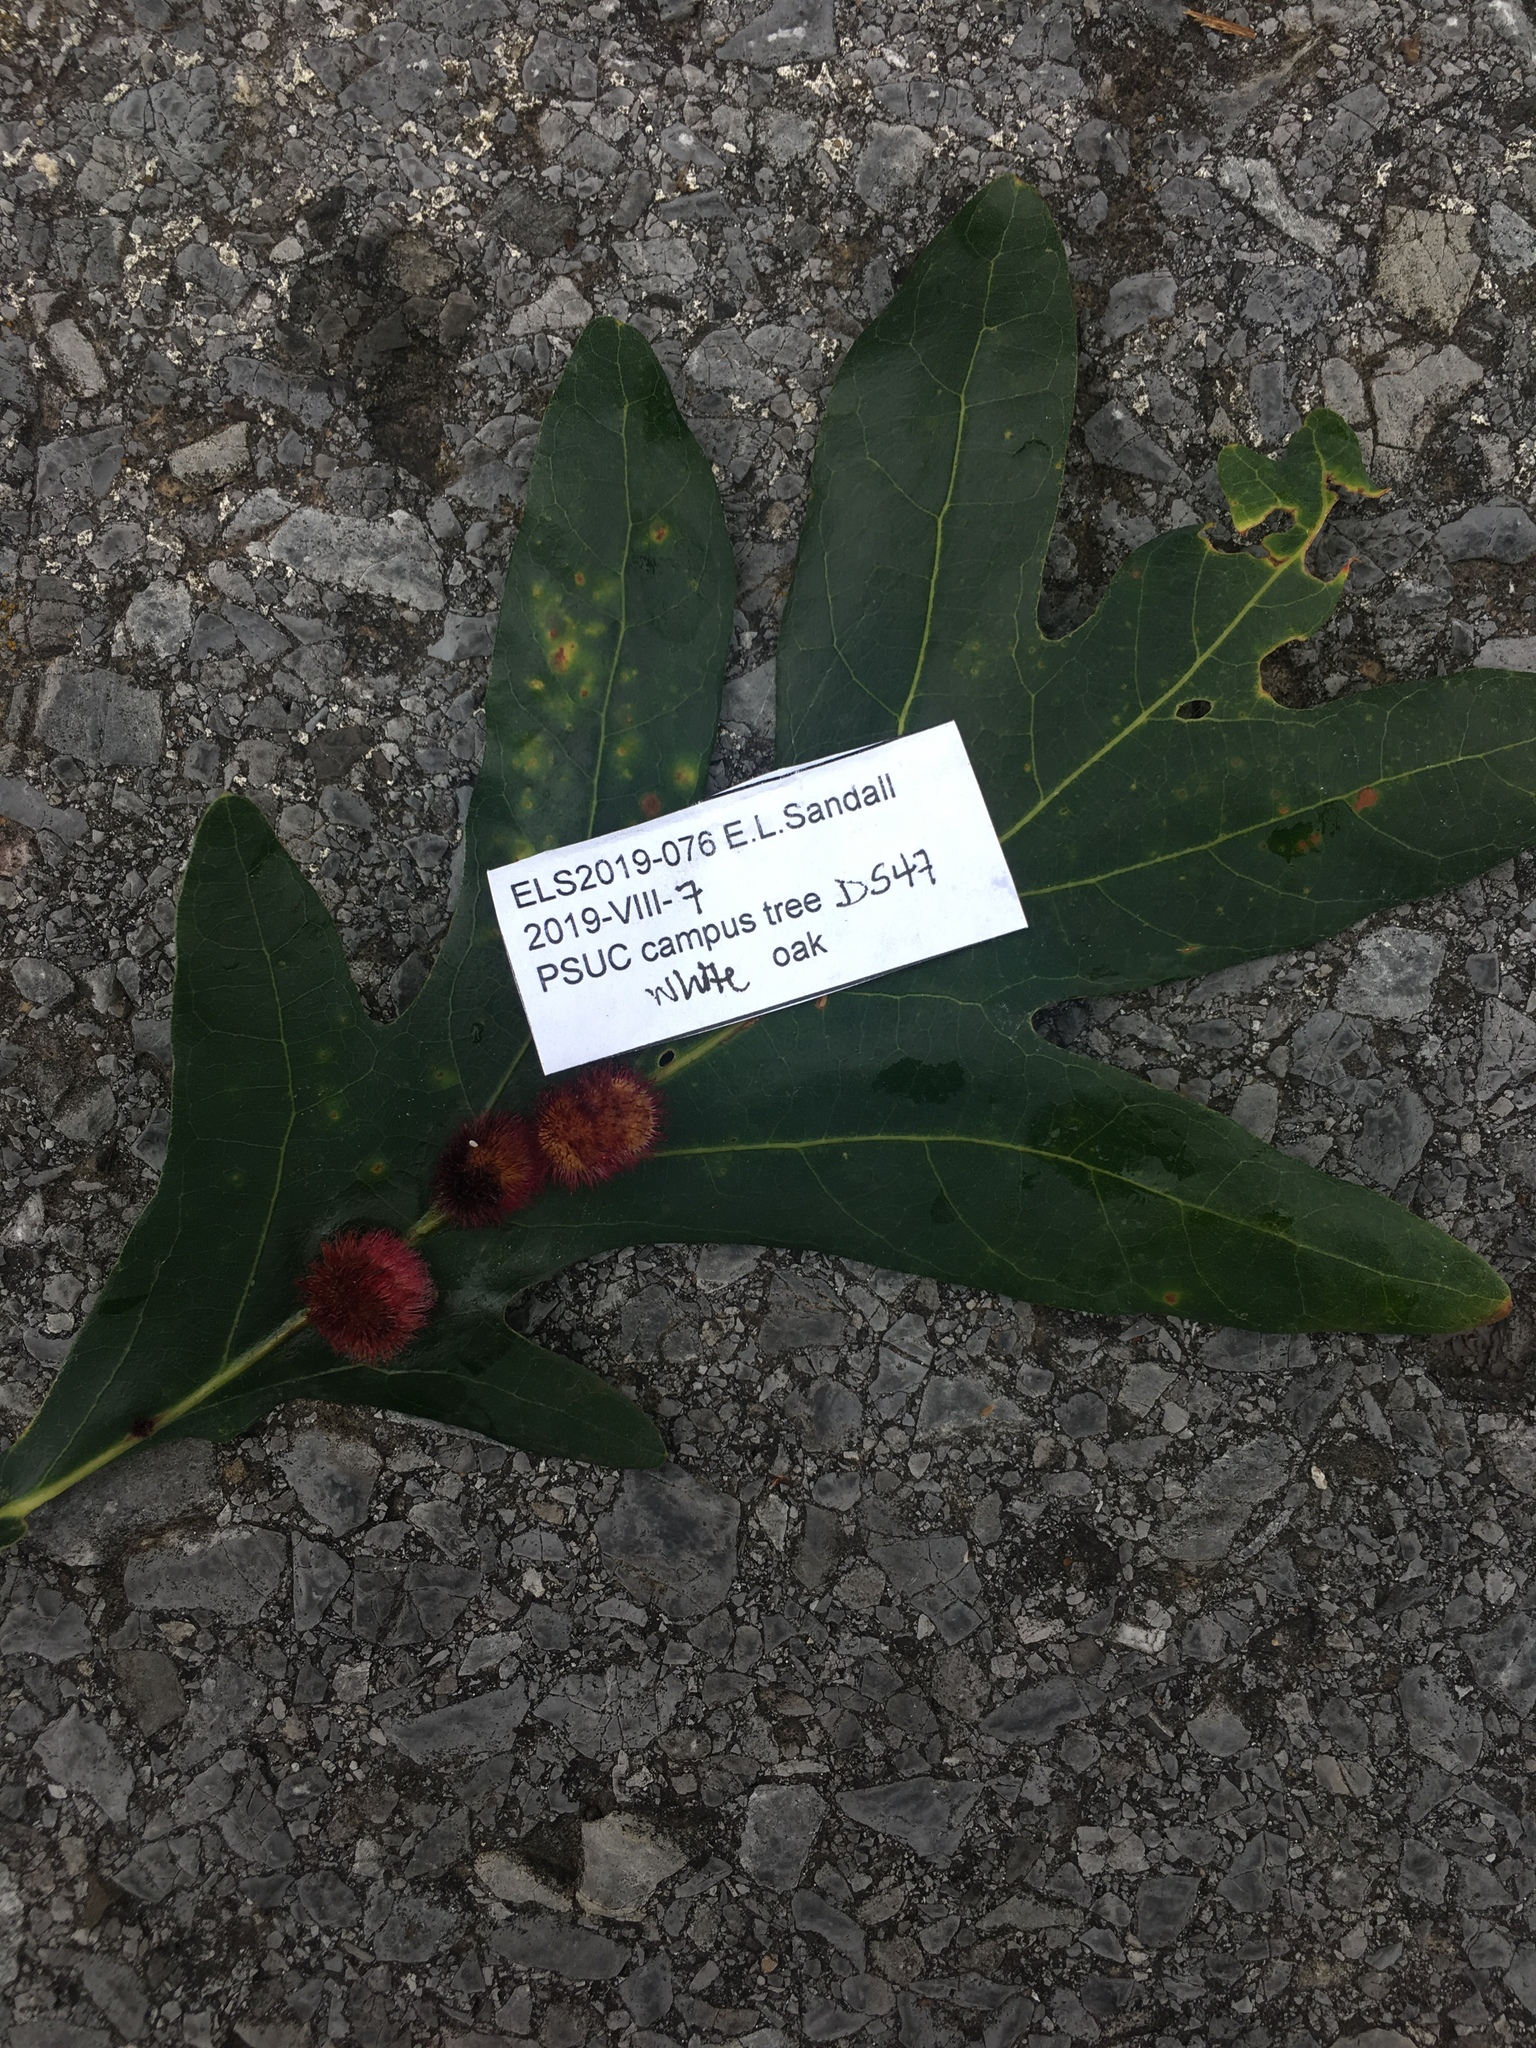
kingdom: Animalia
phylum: Arthropoda
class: Insecta
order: Hymenoptera
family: Cynipidae
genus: Acraspis
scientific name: Acraspis erinacei
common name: Hedgehog gall wasp
